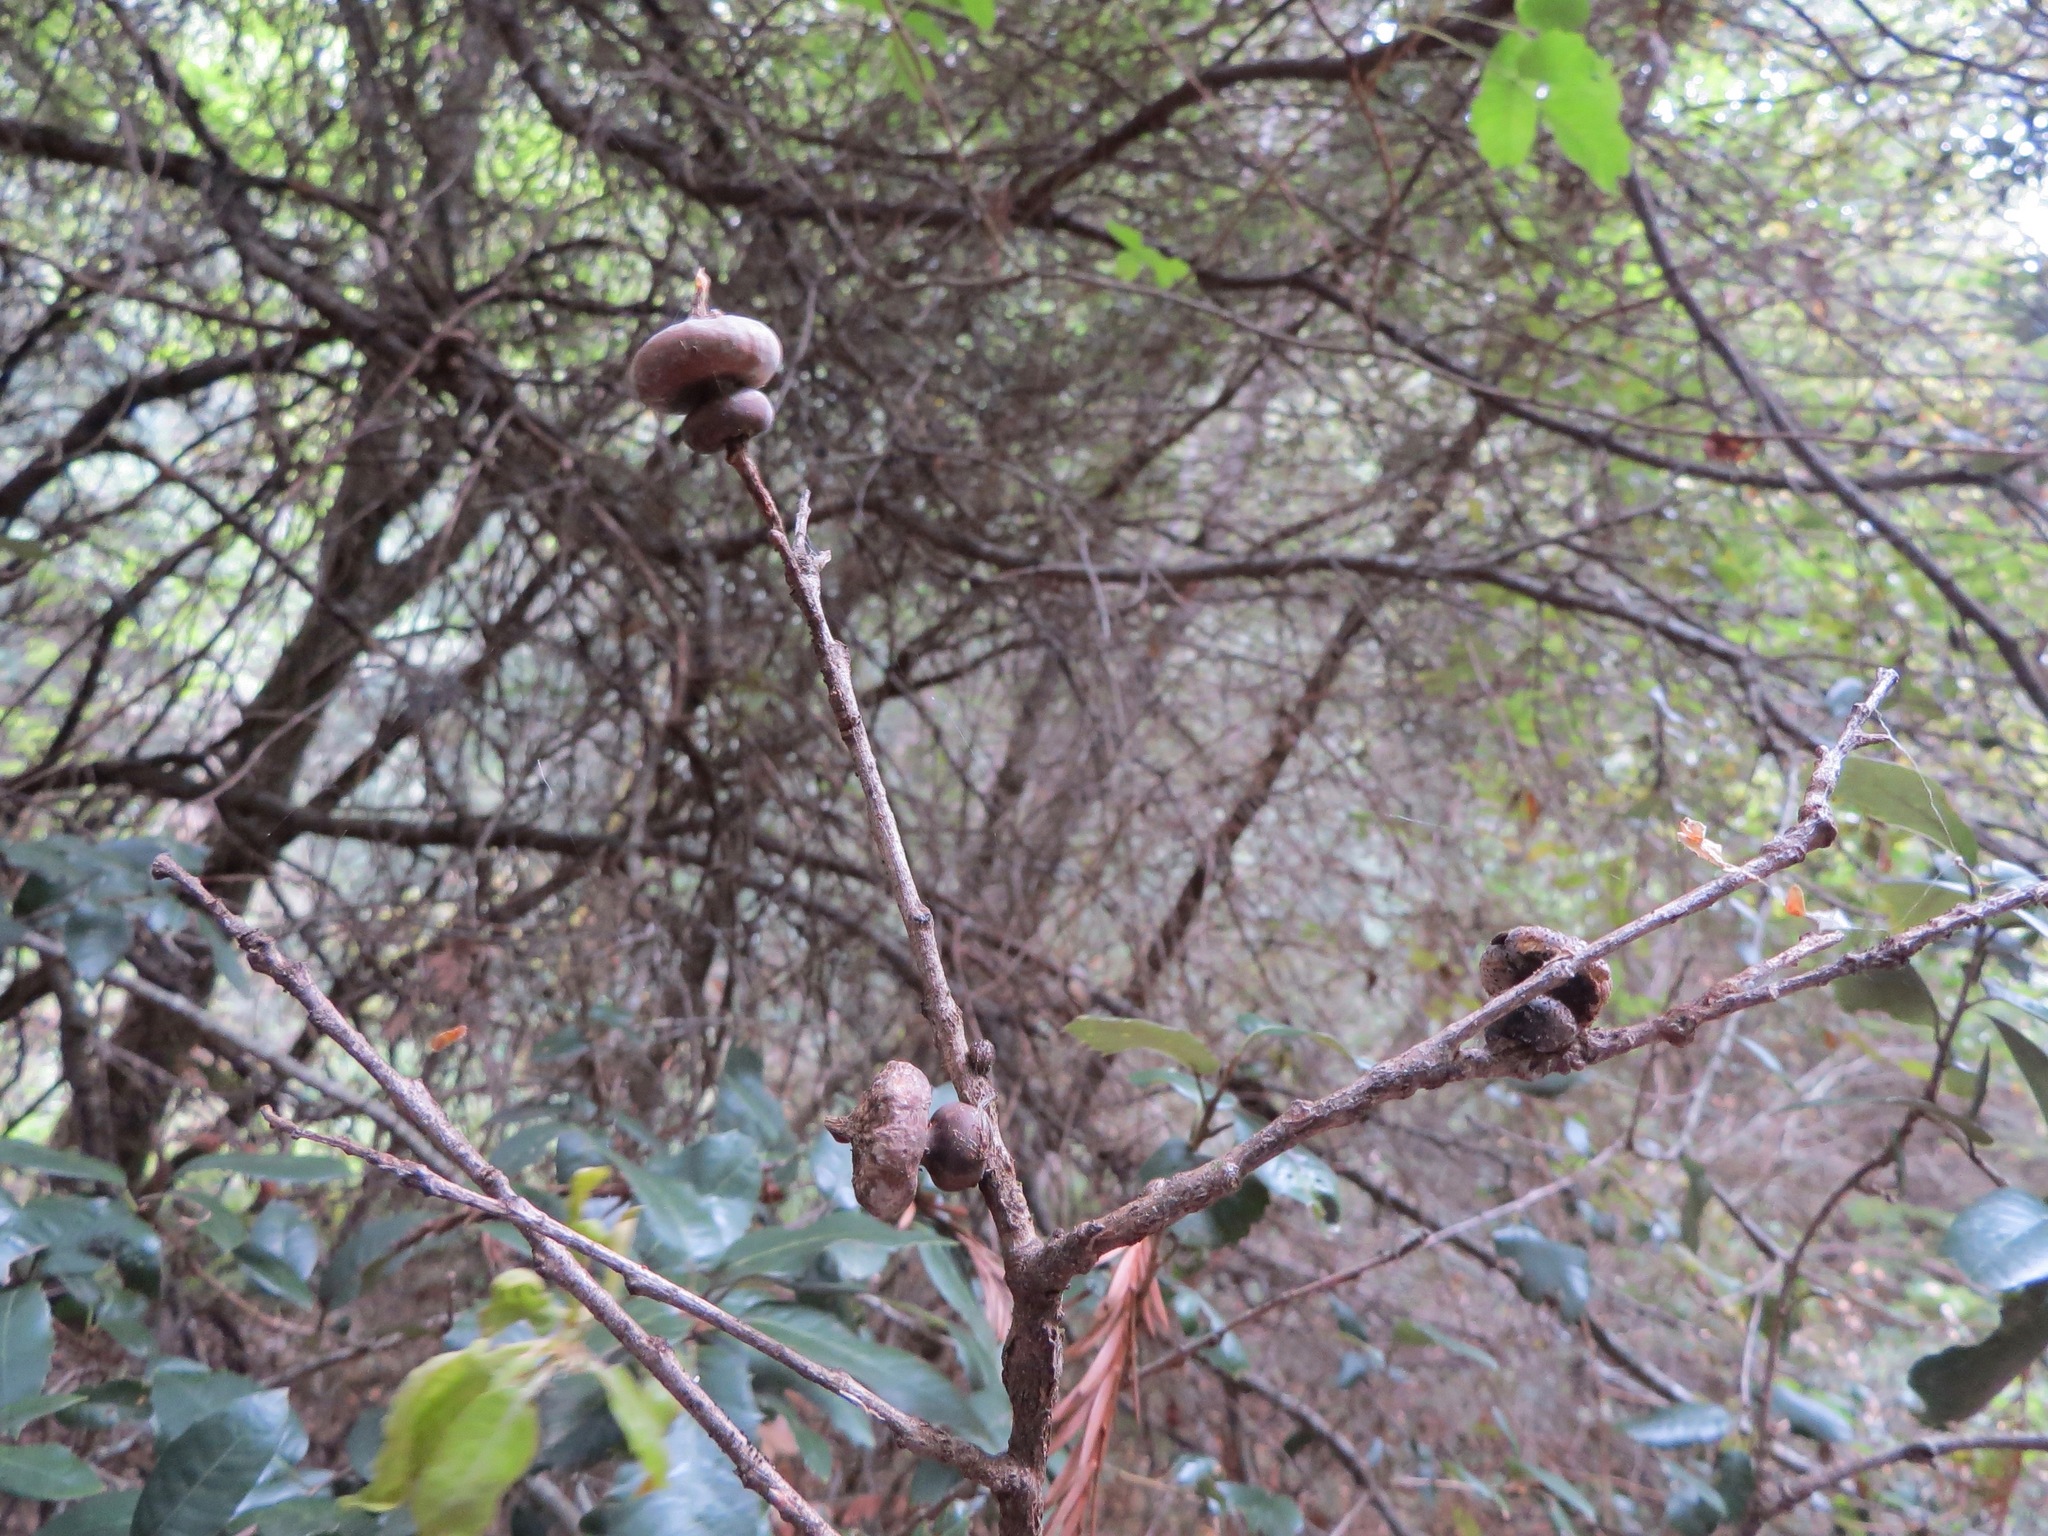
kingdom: Animalia
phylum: Arthropoda
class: Insecta
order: Hymenoptera
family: Cynipidae
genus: Heteroecus
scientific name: Heteroecus
